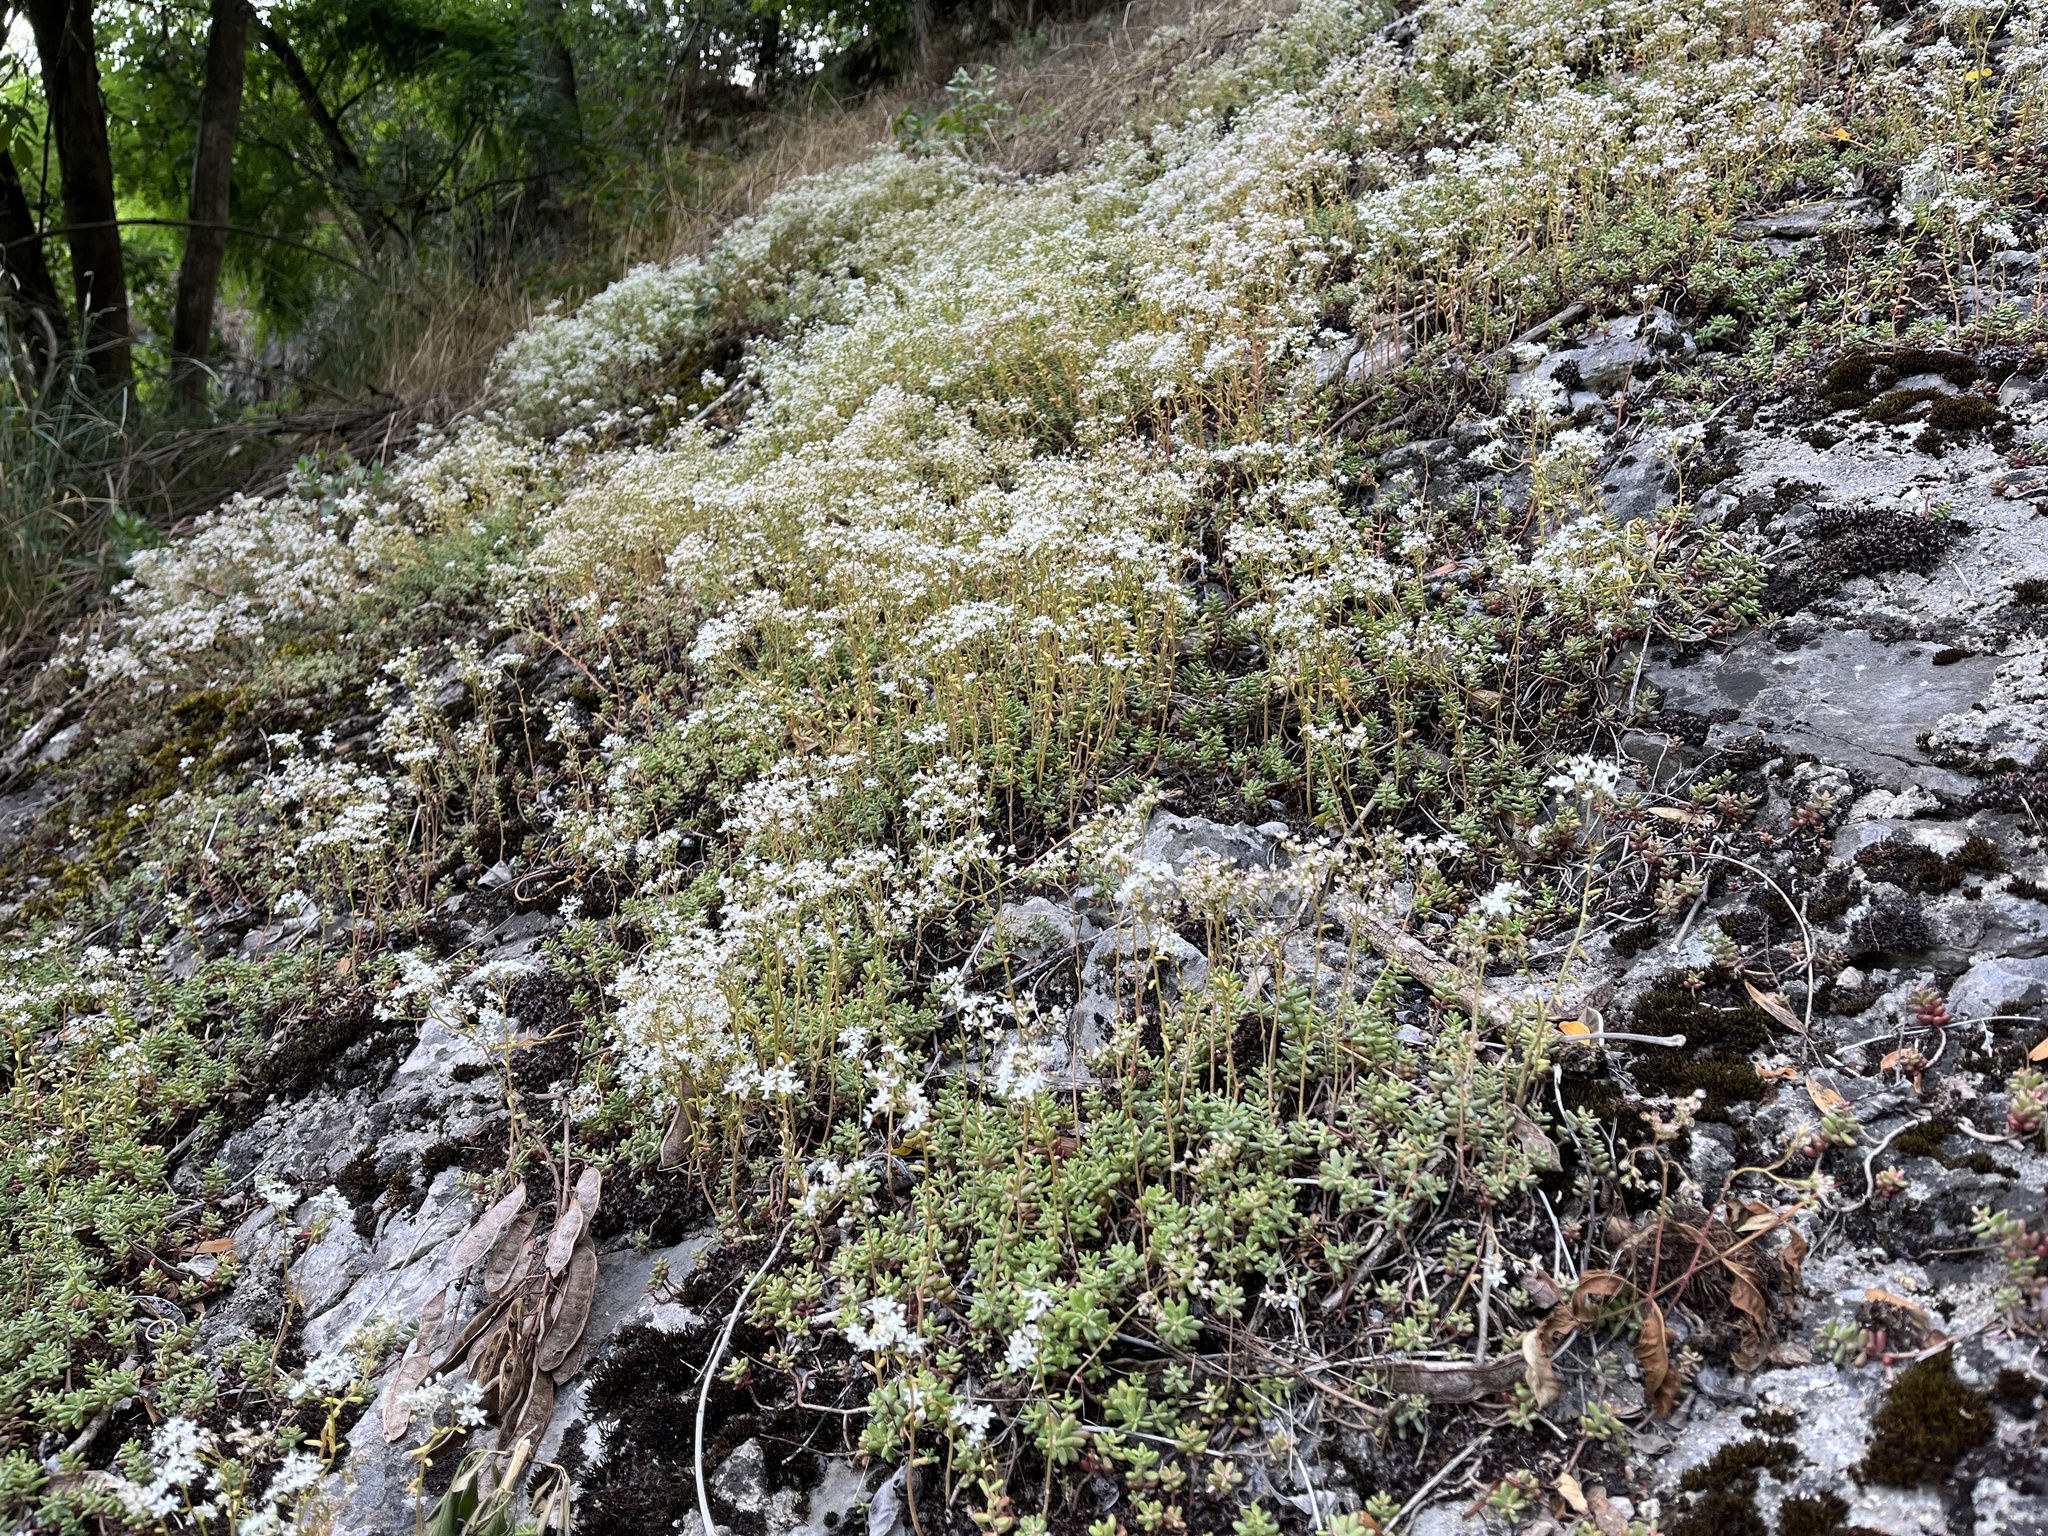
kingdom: Plantae
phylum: Tracheophyta
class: Magnoliopsida
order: Saxifragales
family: Crassulaceae
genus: Sedum
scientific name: Sedum album
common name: White stonecrop
